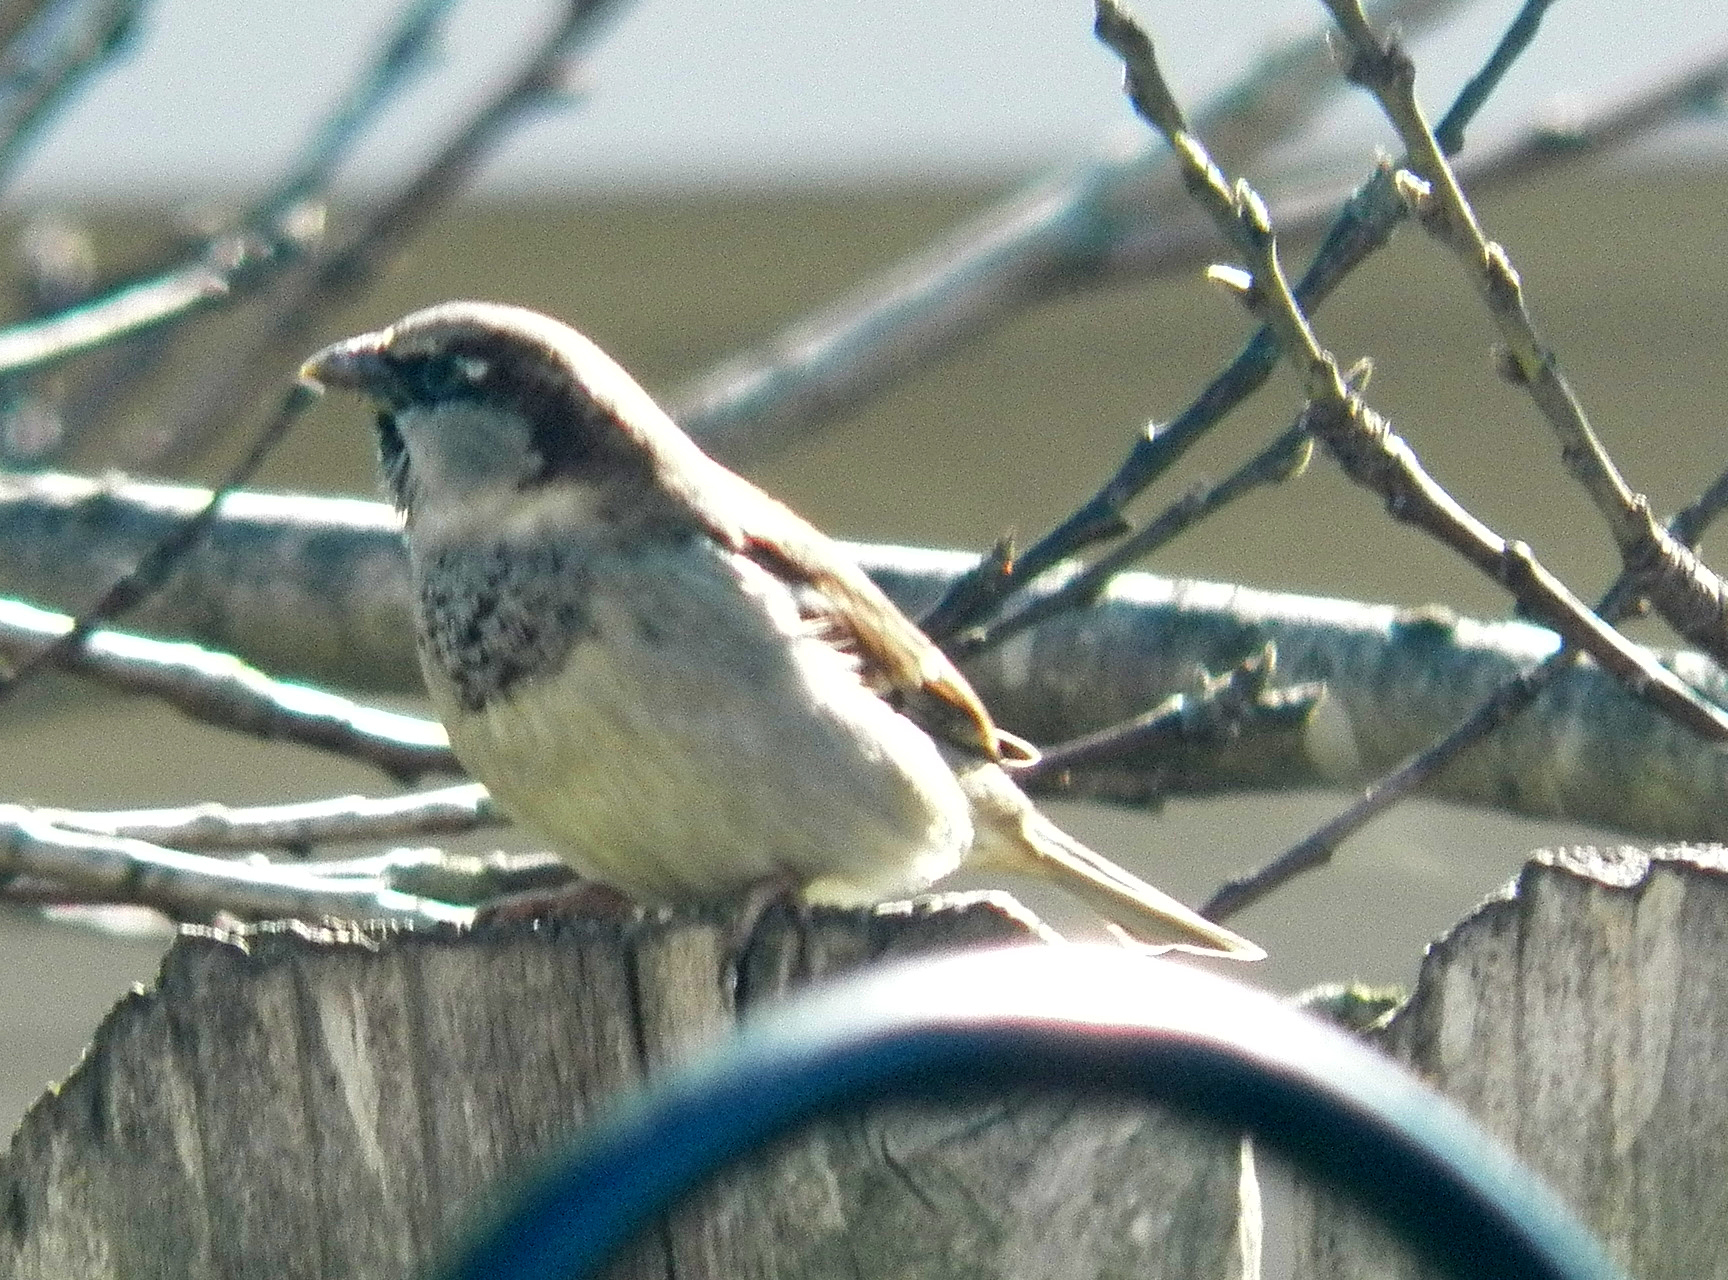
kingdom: Animalia
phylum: Chordata
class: Aves
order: Passeriformes
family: Passeridae
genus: Passer
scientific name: Passer domesticus
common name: House sparrow
